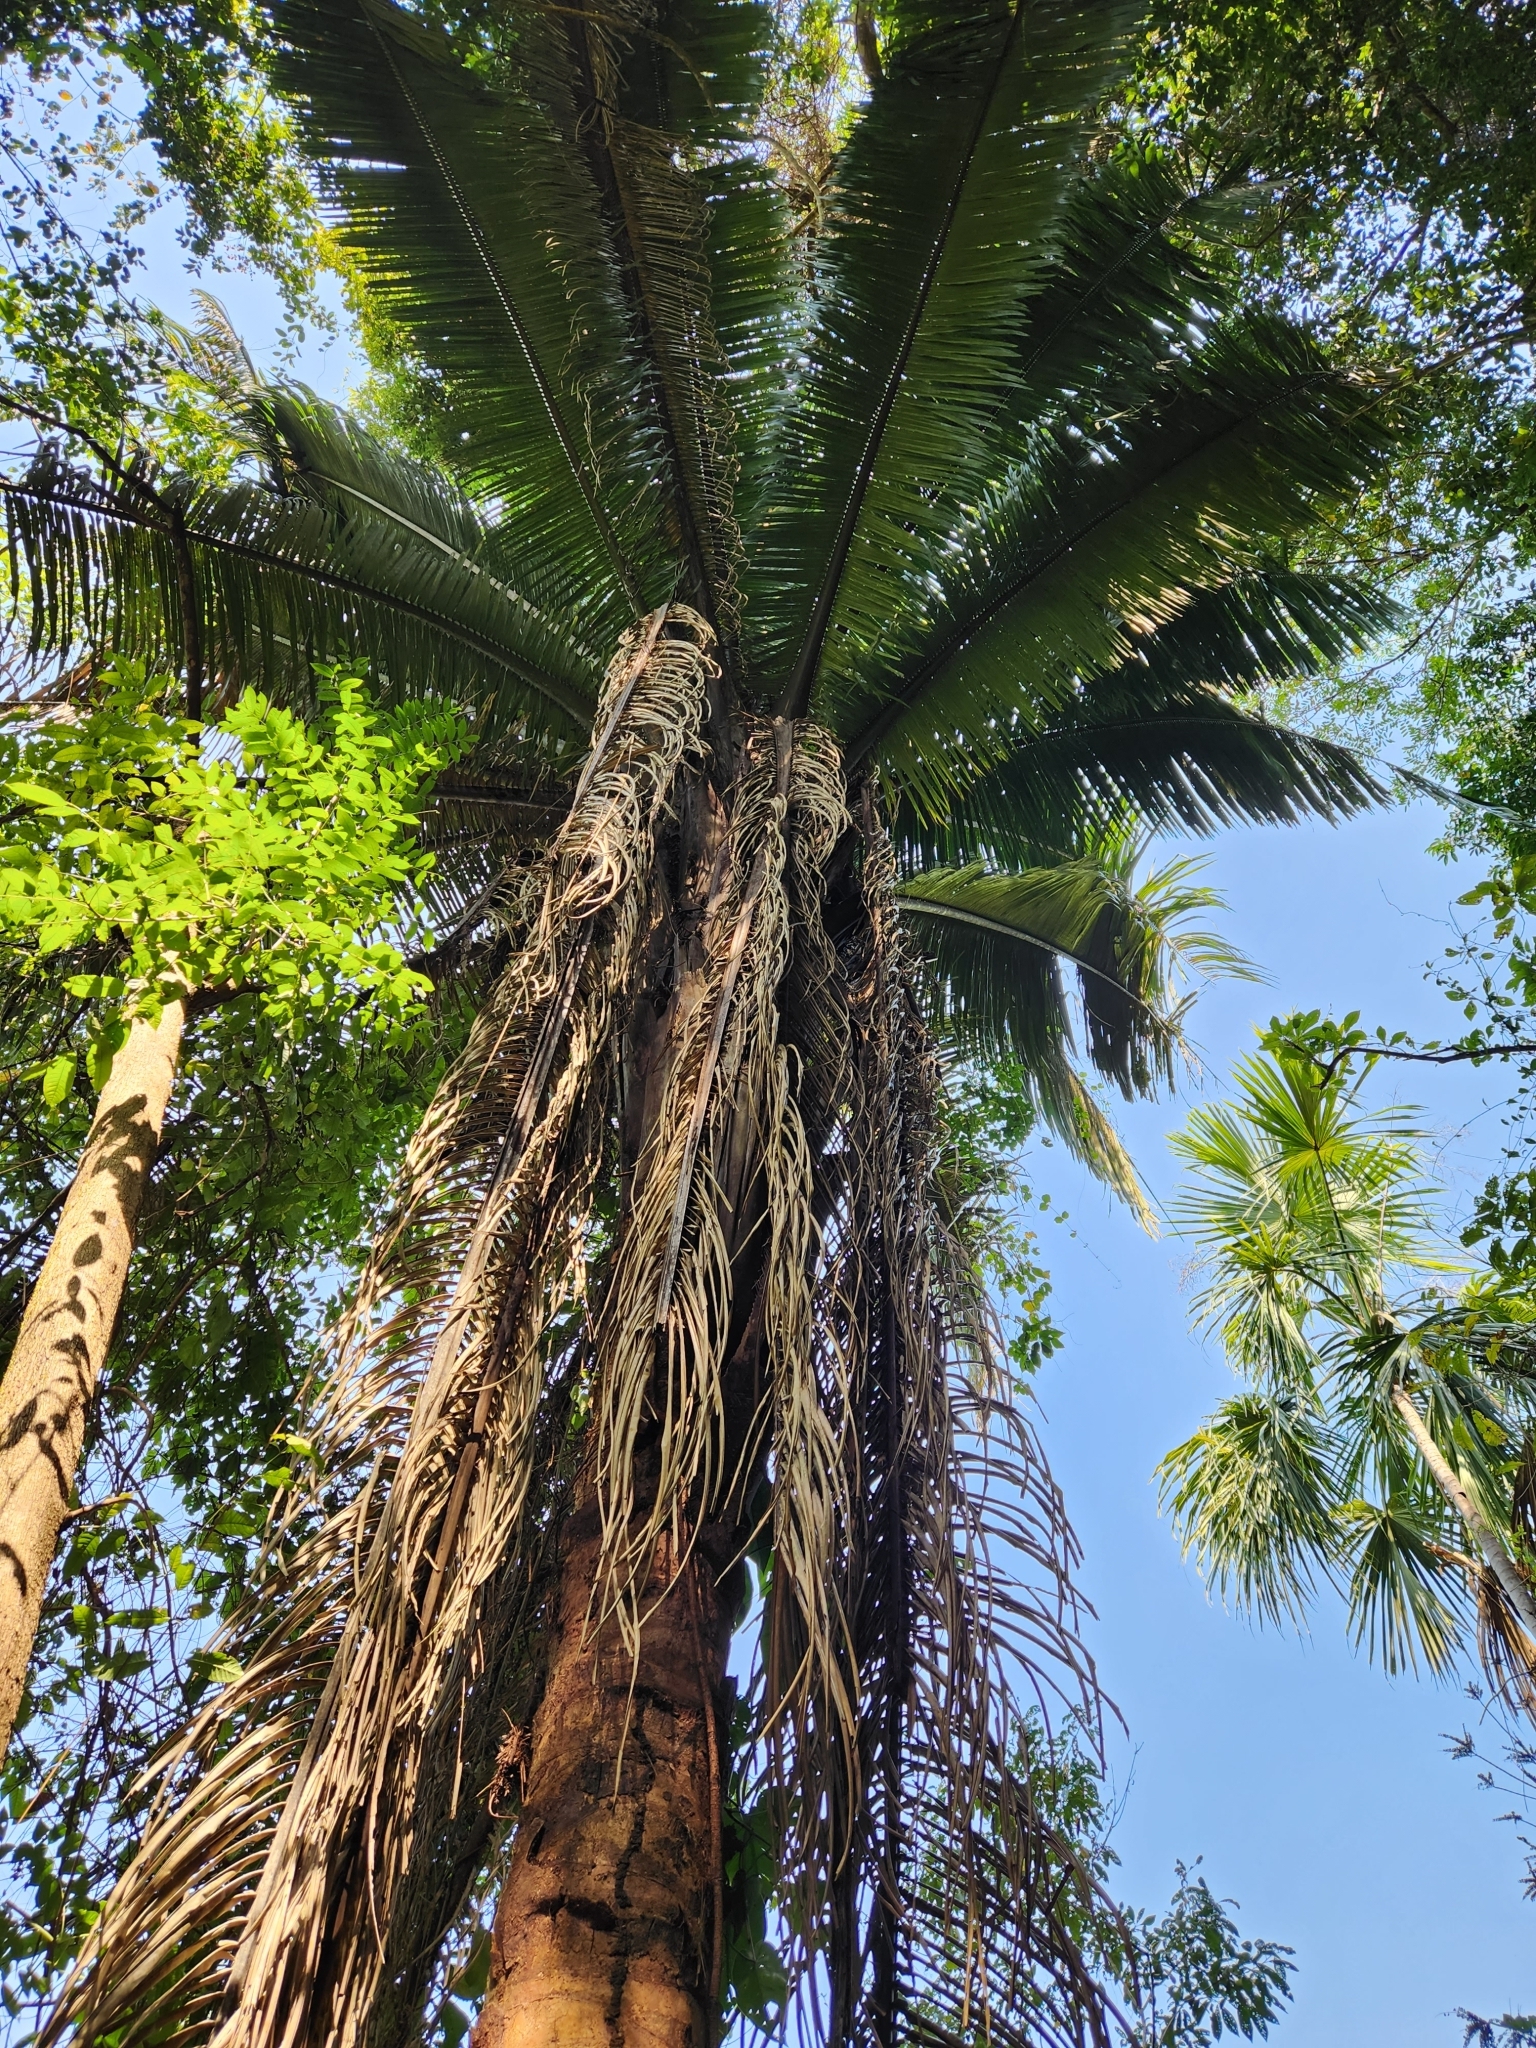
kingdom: Plantae
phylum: Tracheophyta
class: Liliopsida
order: Arecales
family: Arecaceae
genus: Attalea
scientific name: Attalea cohune
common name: Cohune palm
